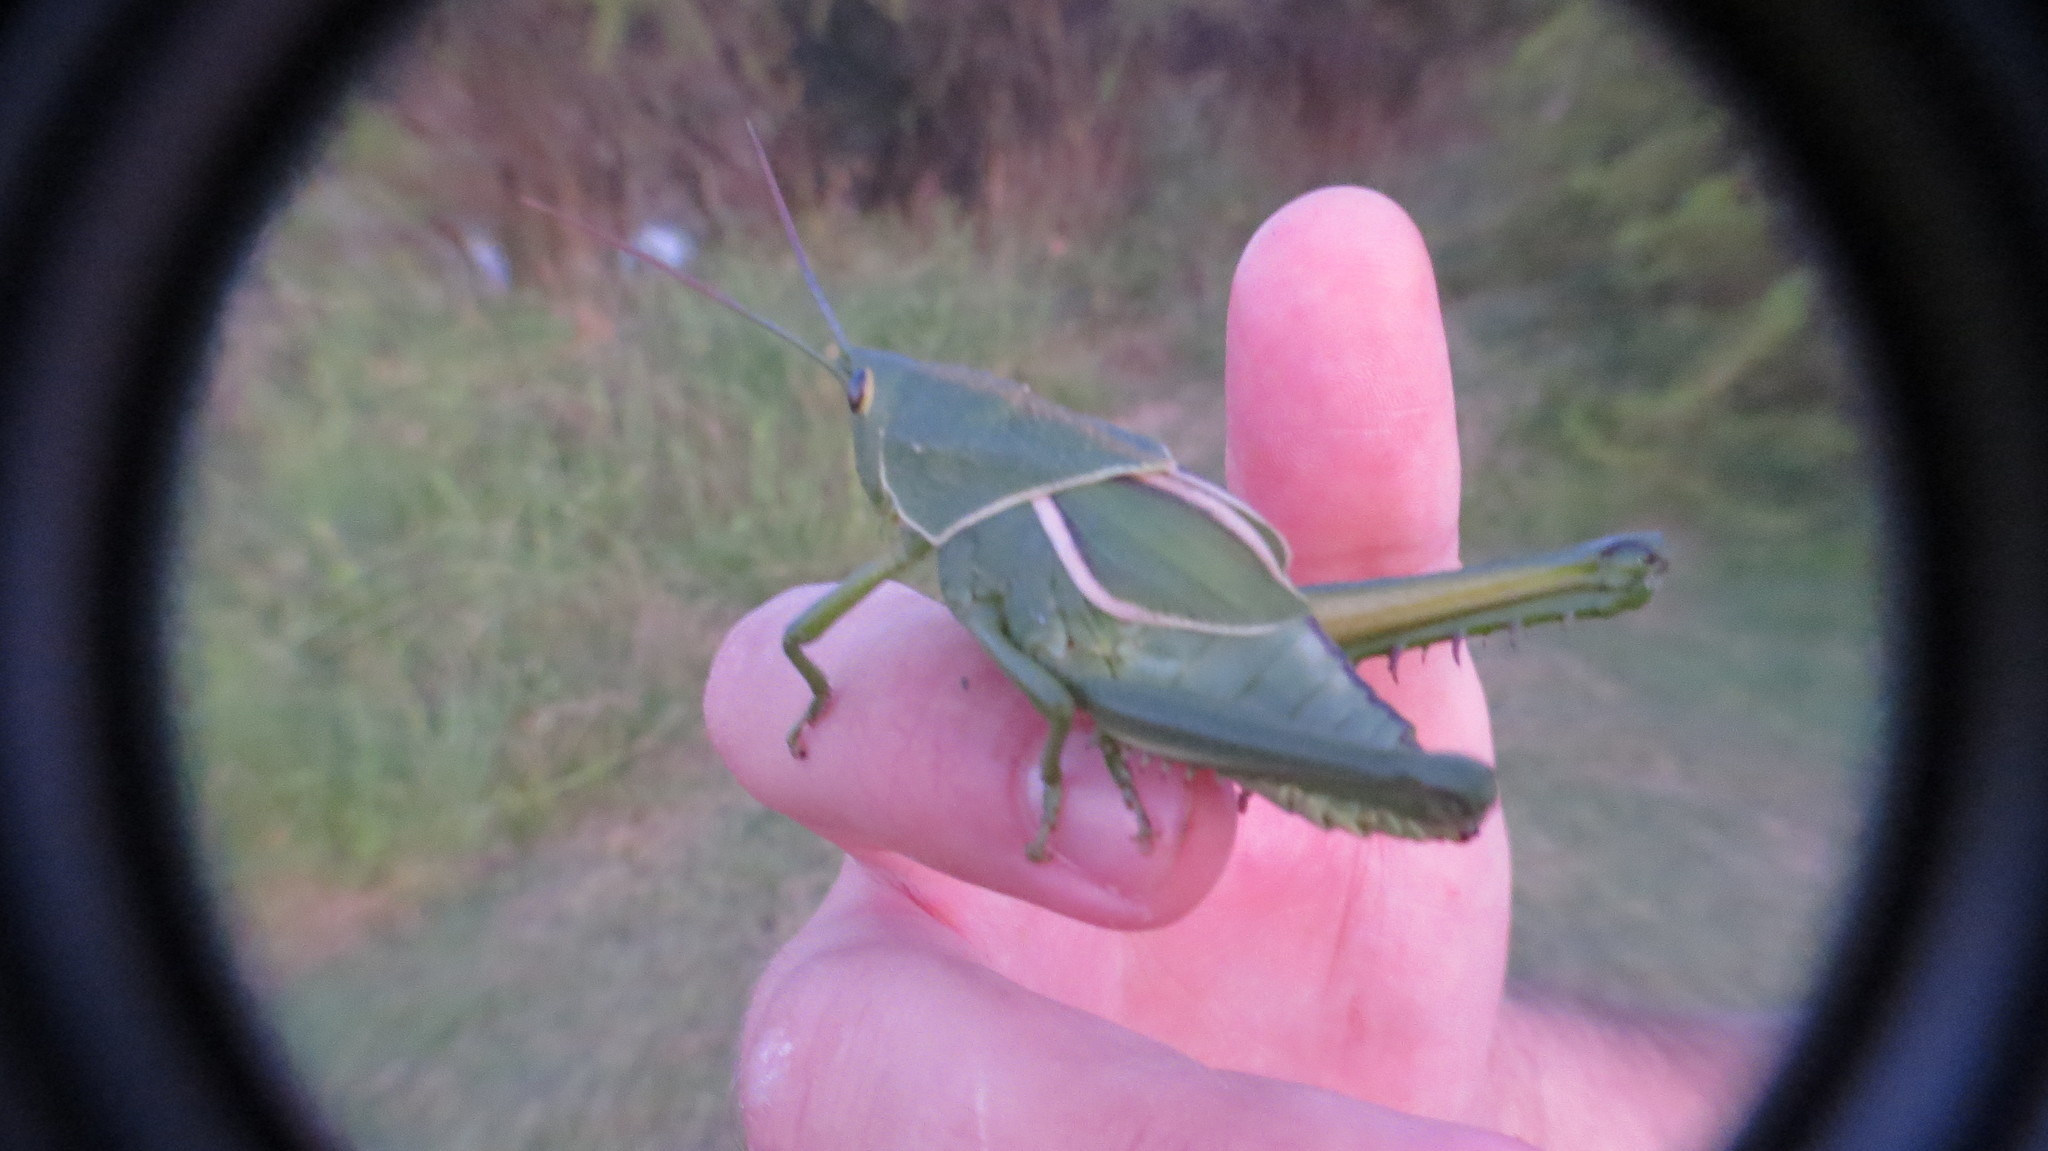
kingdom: Animalia
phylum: Arthropoda
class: Insecta
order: Orthoptera
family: Romaleidae
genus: Staleochlora
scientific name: Staleochlora viridicata
